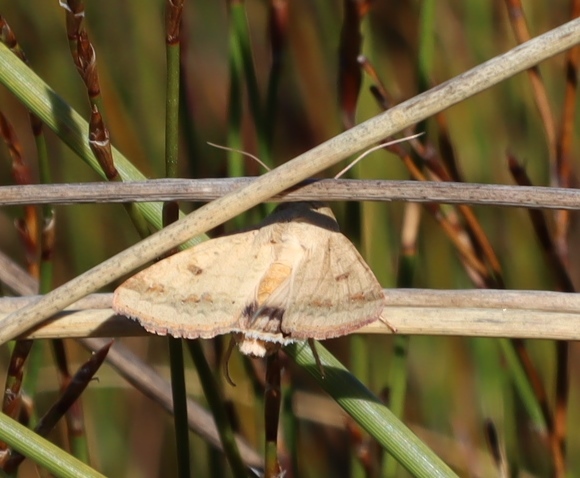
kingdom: Animalia
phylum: Arthropoda
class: Insecta
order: Lepidoptera
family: Noctuidae
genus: Helicoverpa
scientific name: Helicoverpa armigera
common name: Cotton bollworm
